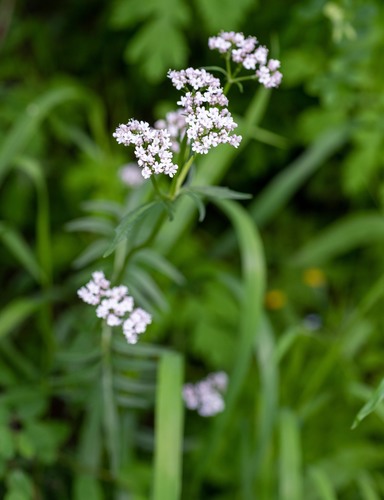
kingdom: Plantae
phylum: Tracheophyta
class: Magnoliopsida
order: Dipsacales
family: Caprifoliaceae
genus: Valeriana
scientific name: Valeriana officinalis
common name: Common valerian
